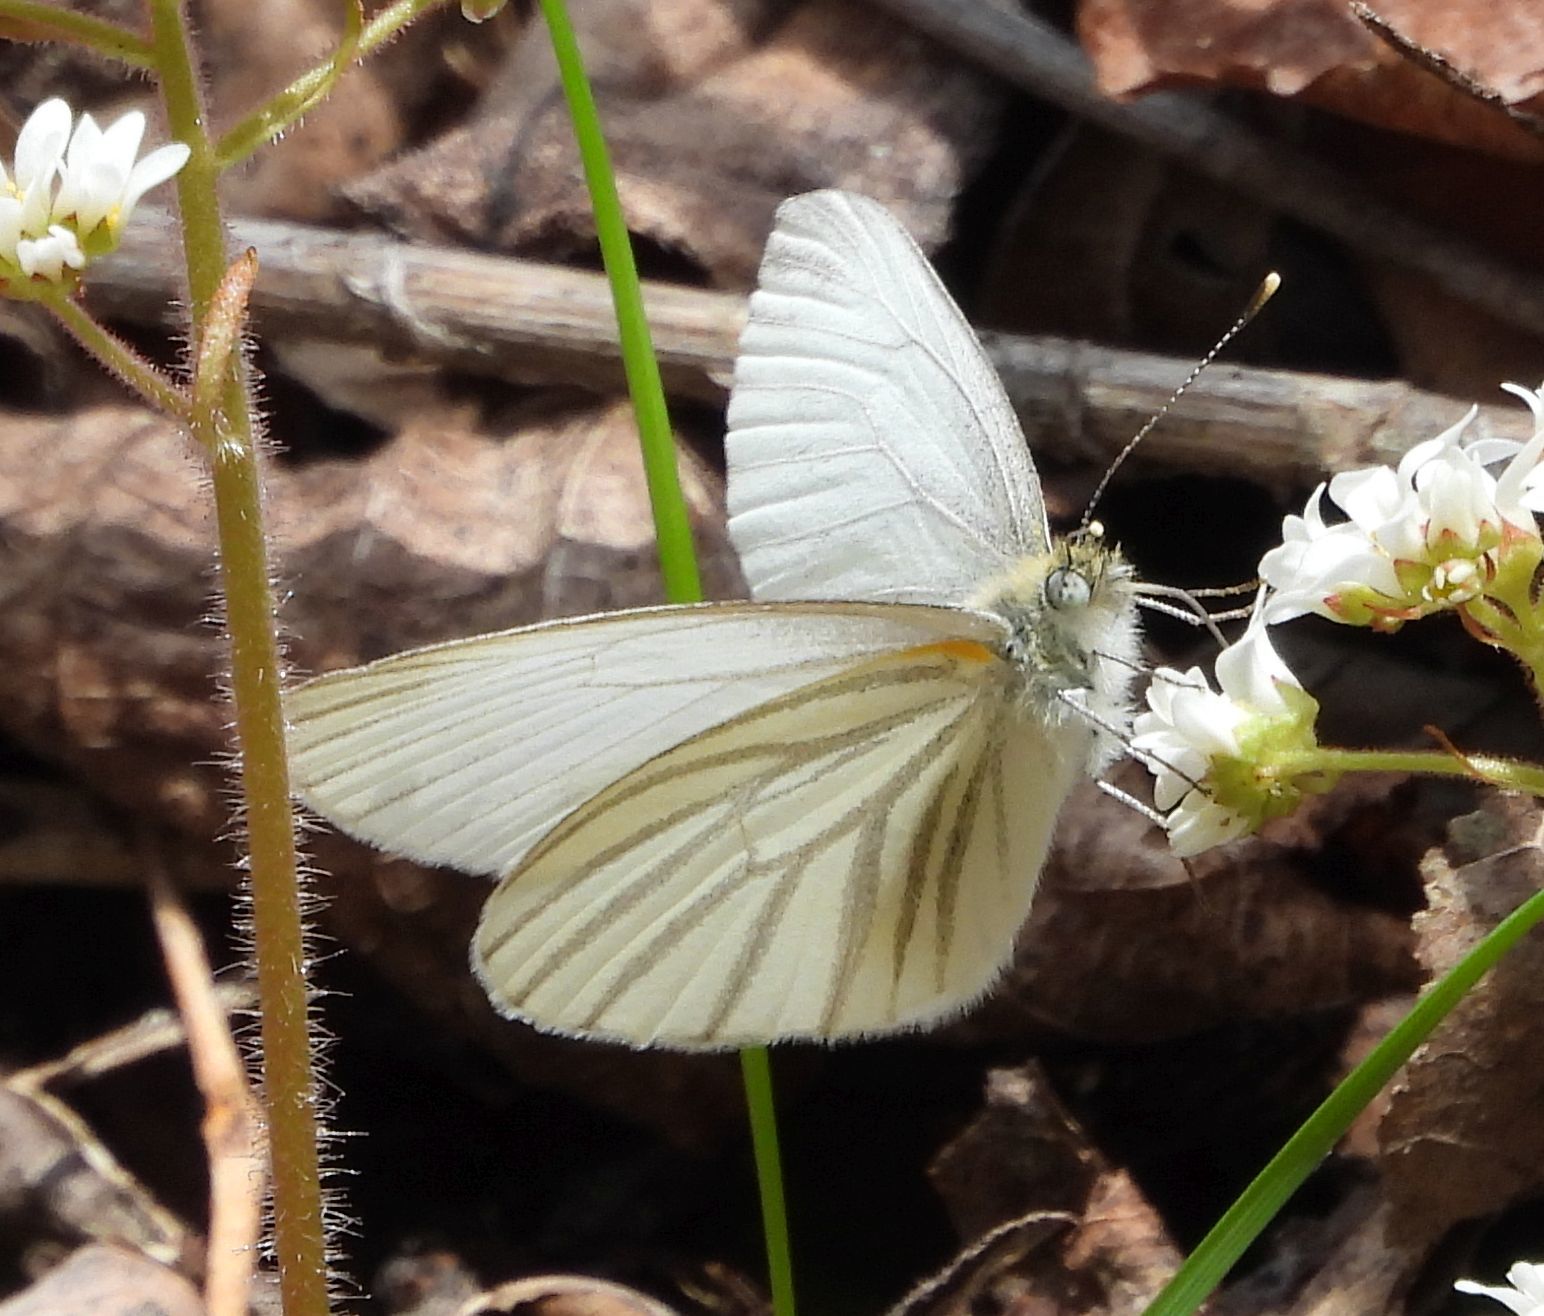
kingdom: Animalia
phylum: Arthropoda
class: Insecta
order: Lepidoptera
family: Pieridae
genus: Pieris
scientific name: Pieris oleracea
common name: Mustard white
